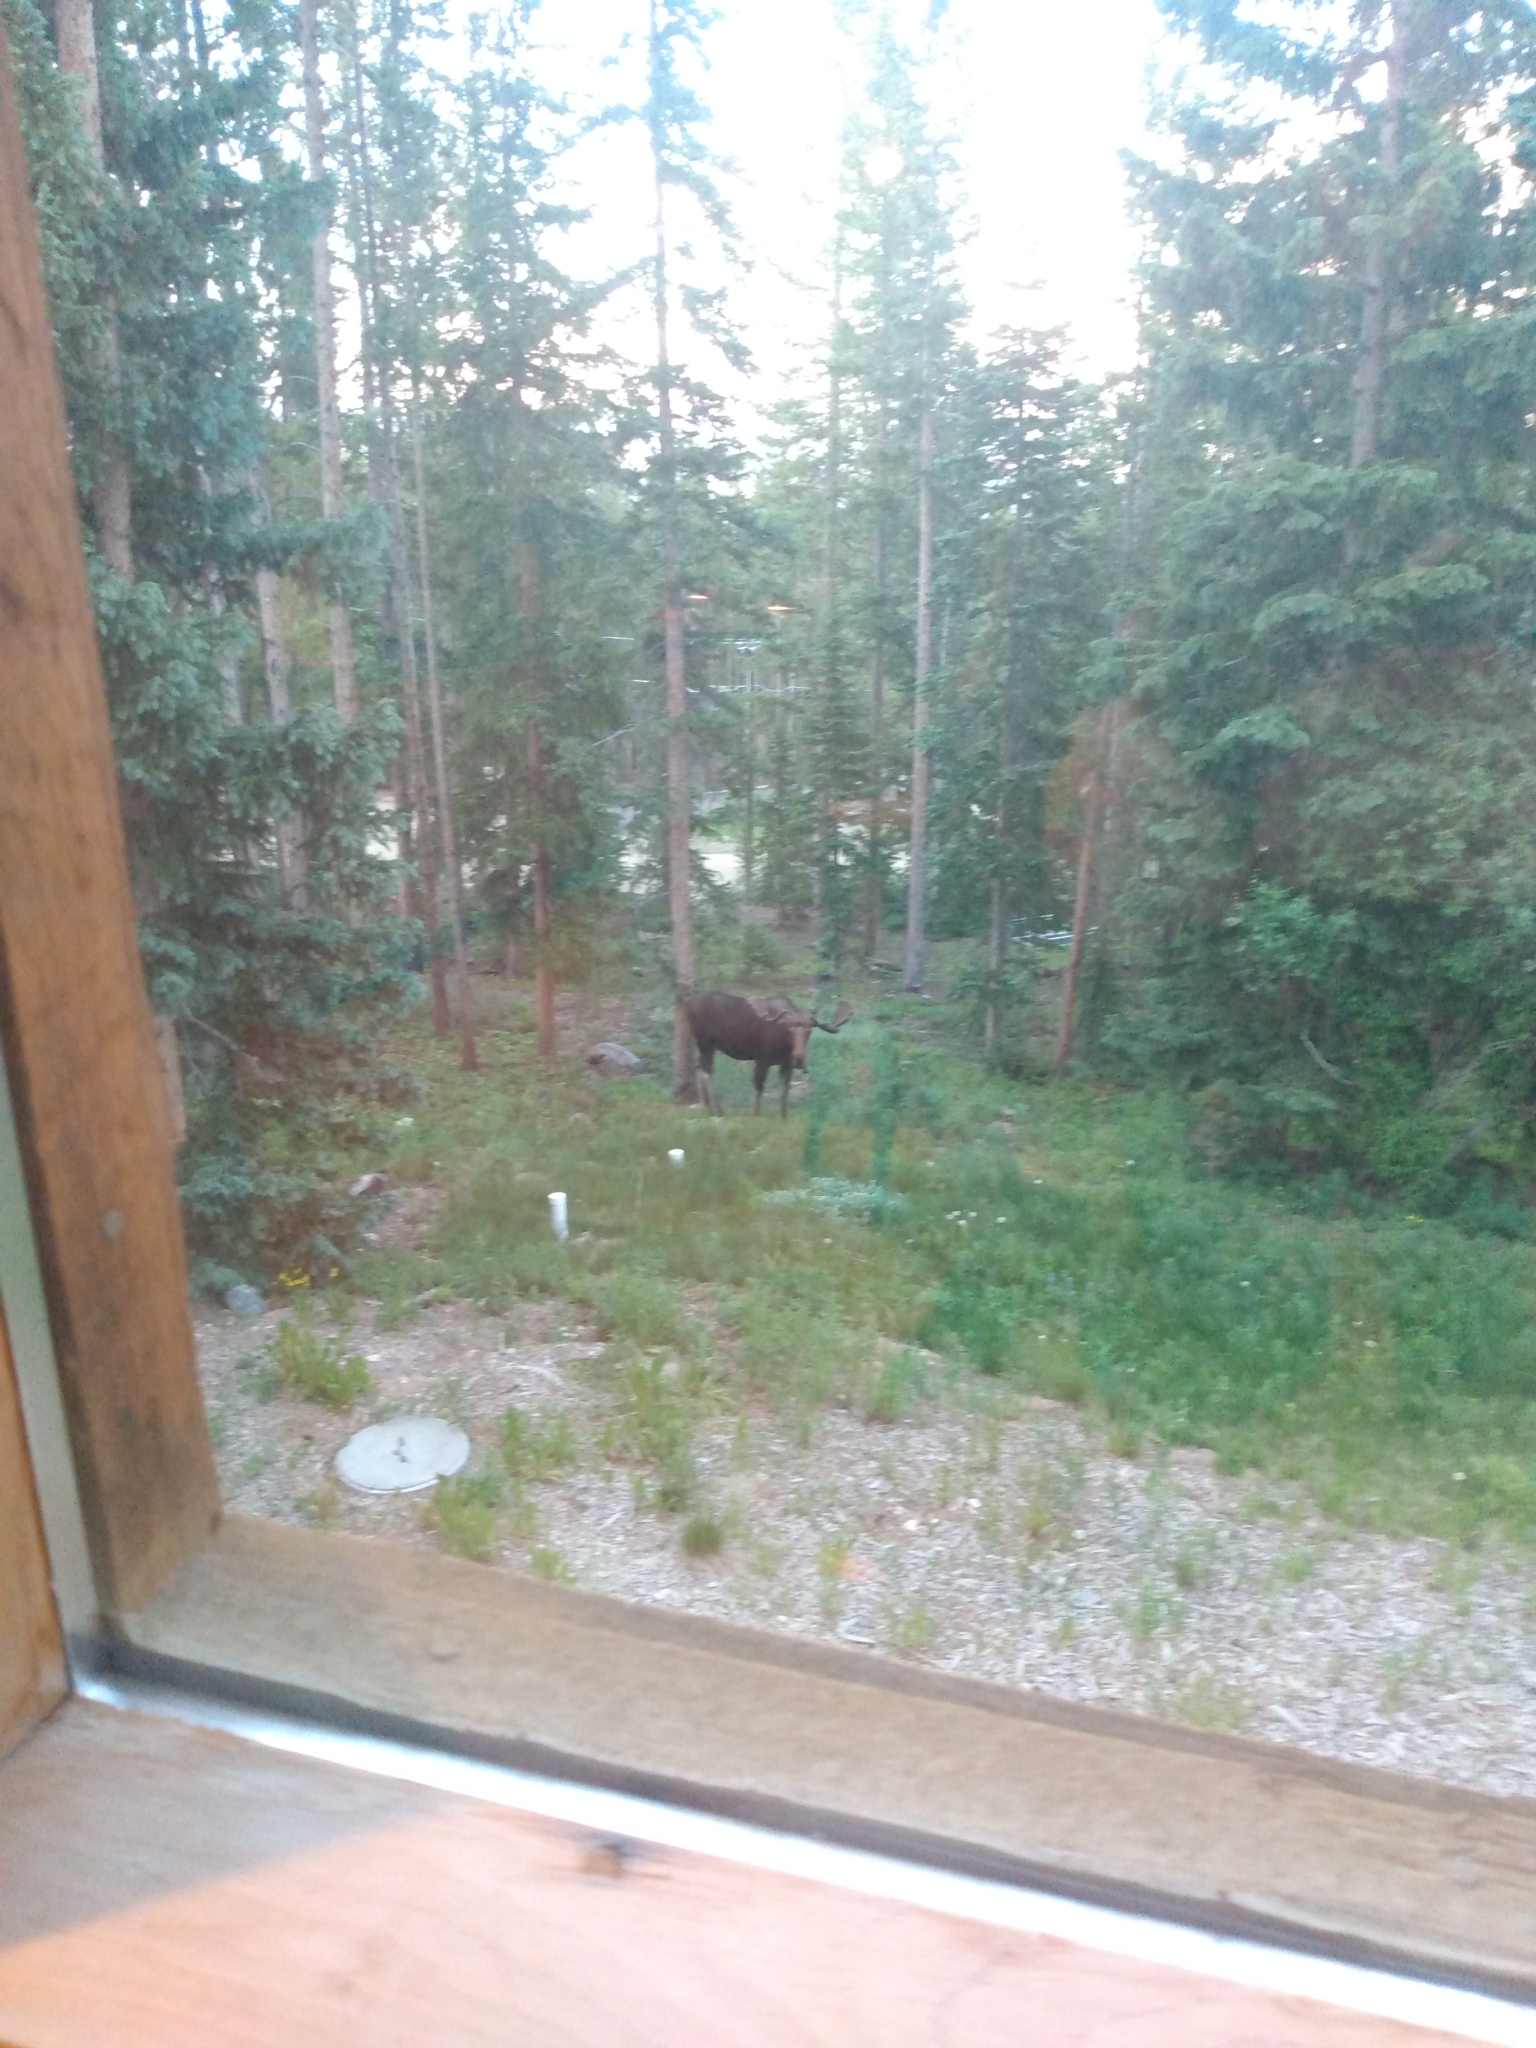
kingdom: Animalia
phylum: Chordata
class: Mammalia
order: Artiodactyla
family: Cervidae
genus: Alces
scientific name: Alces alces
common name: Moose
